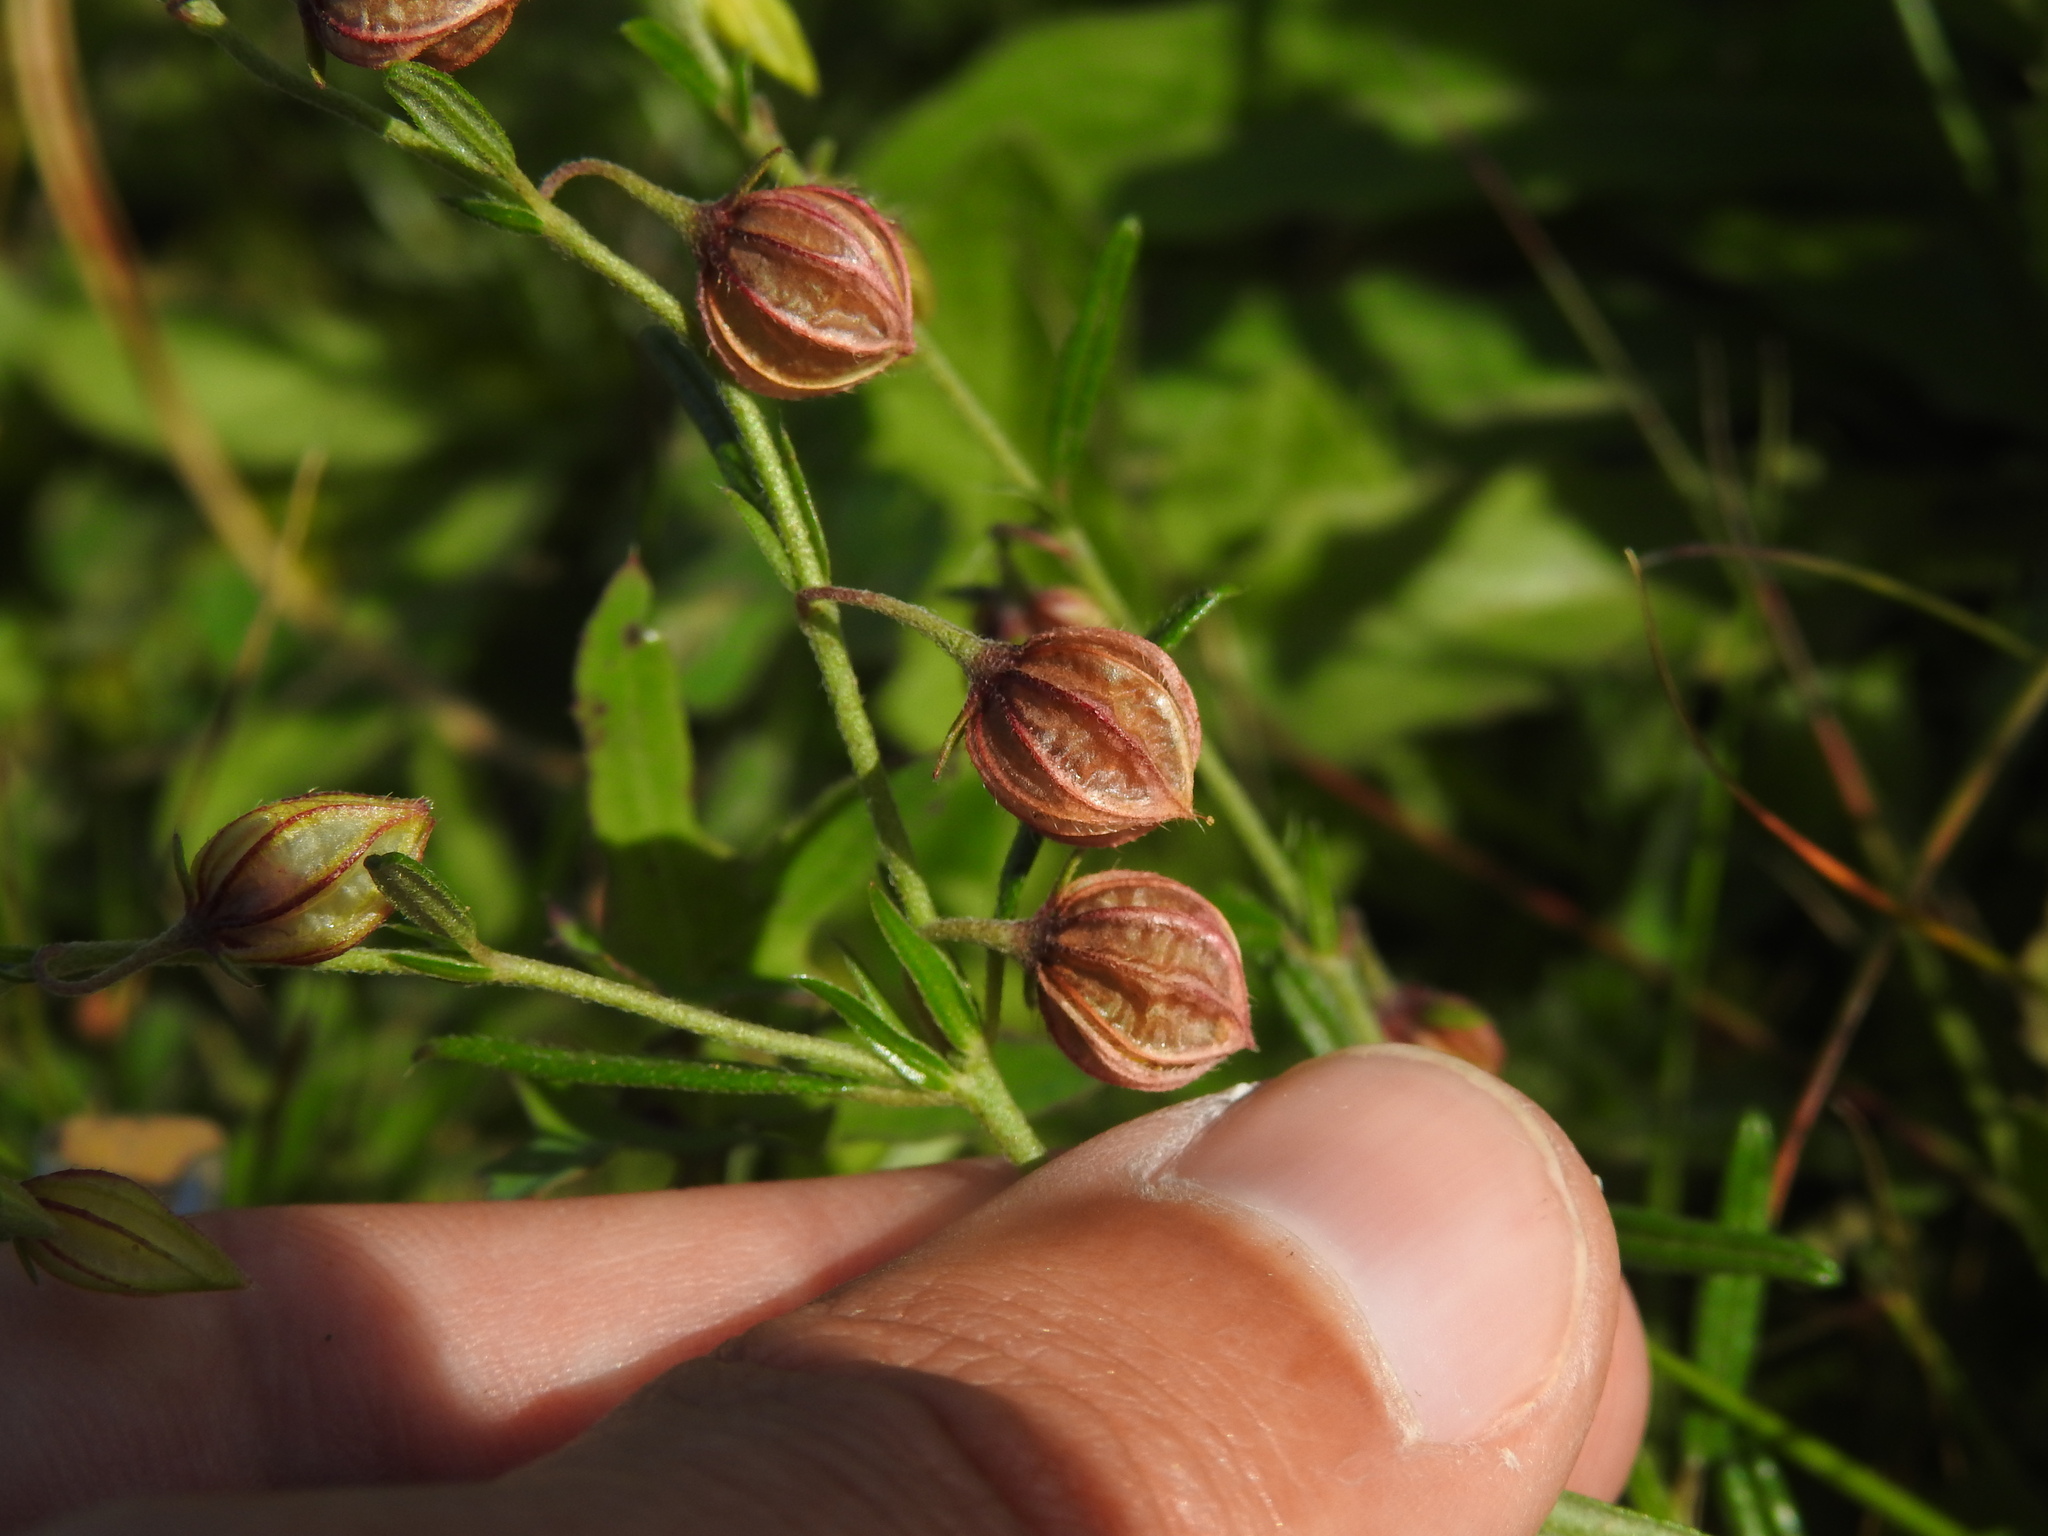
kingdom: Plantae
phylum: Tracheophyta
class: Magnoliopsida
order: Malvales
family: Cistaceae
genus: Helianthemum
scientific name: Helianthemum aegyptiacum
